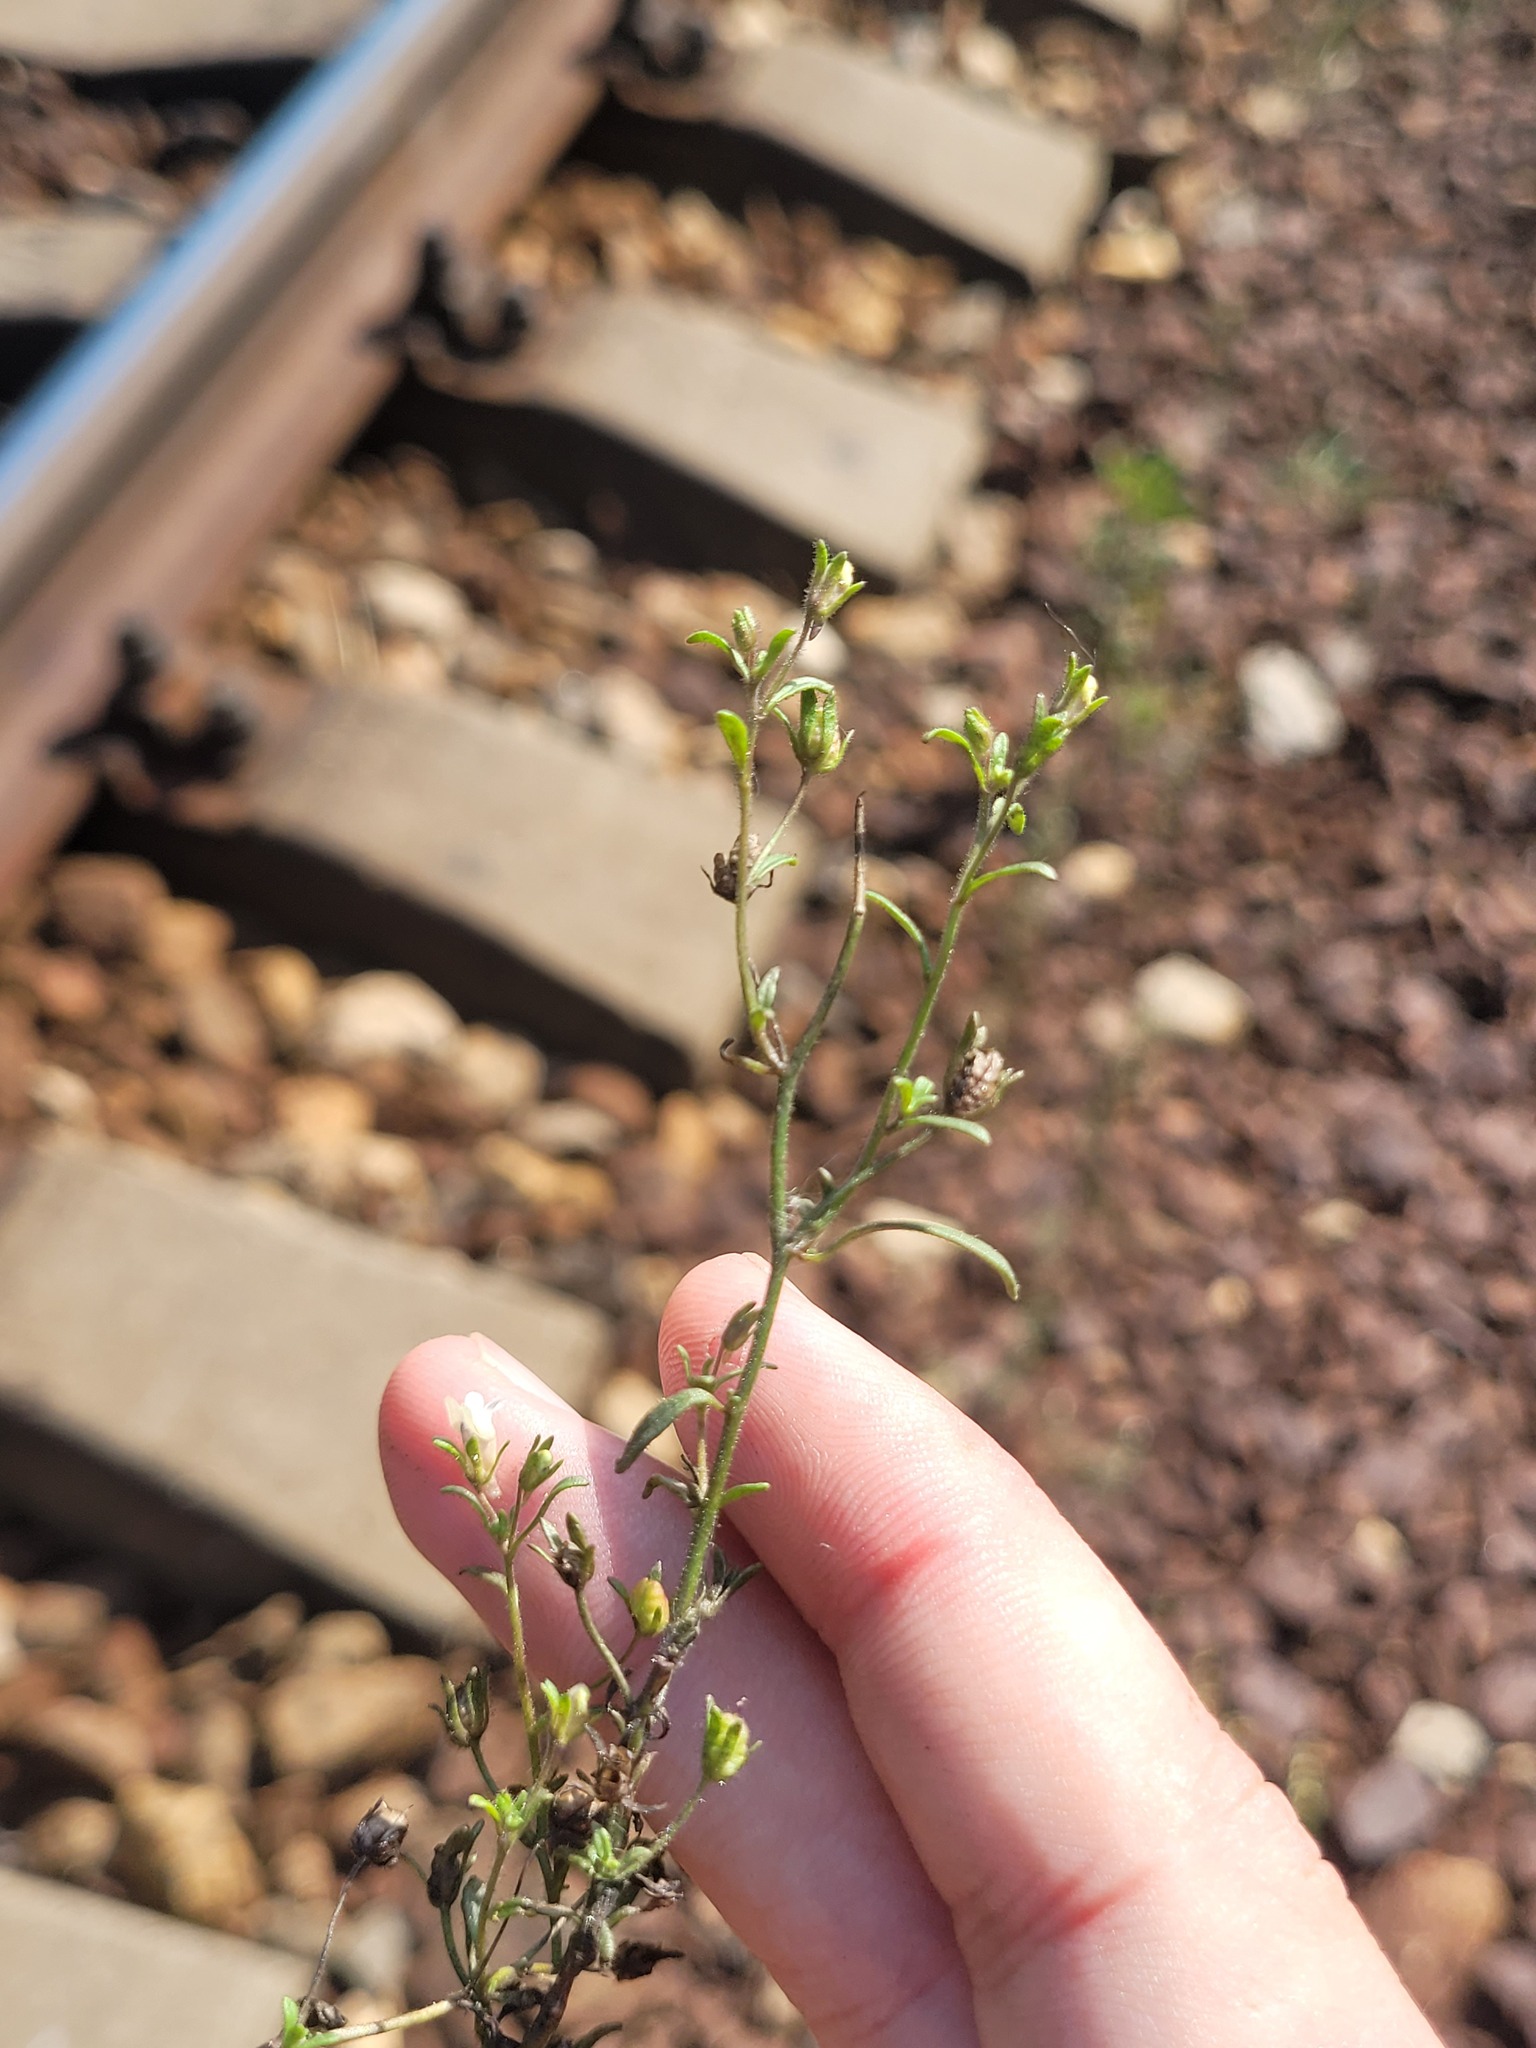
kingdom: Plantae
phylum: Tracheophyta
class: Magnoliopsida
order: Lamiales
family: Plantaginaceae
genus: Chaenorhinum
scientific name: Chaenorhinum minus
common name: Dwarf snapdragon
